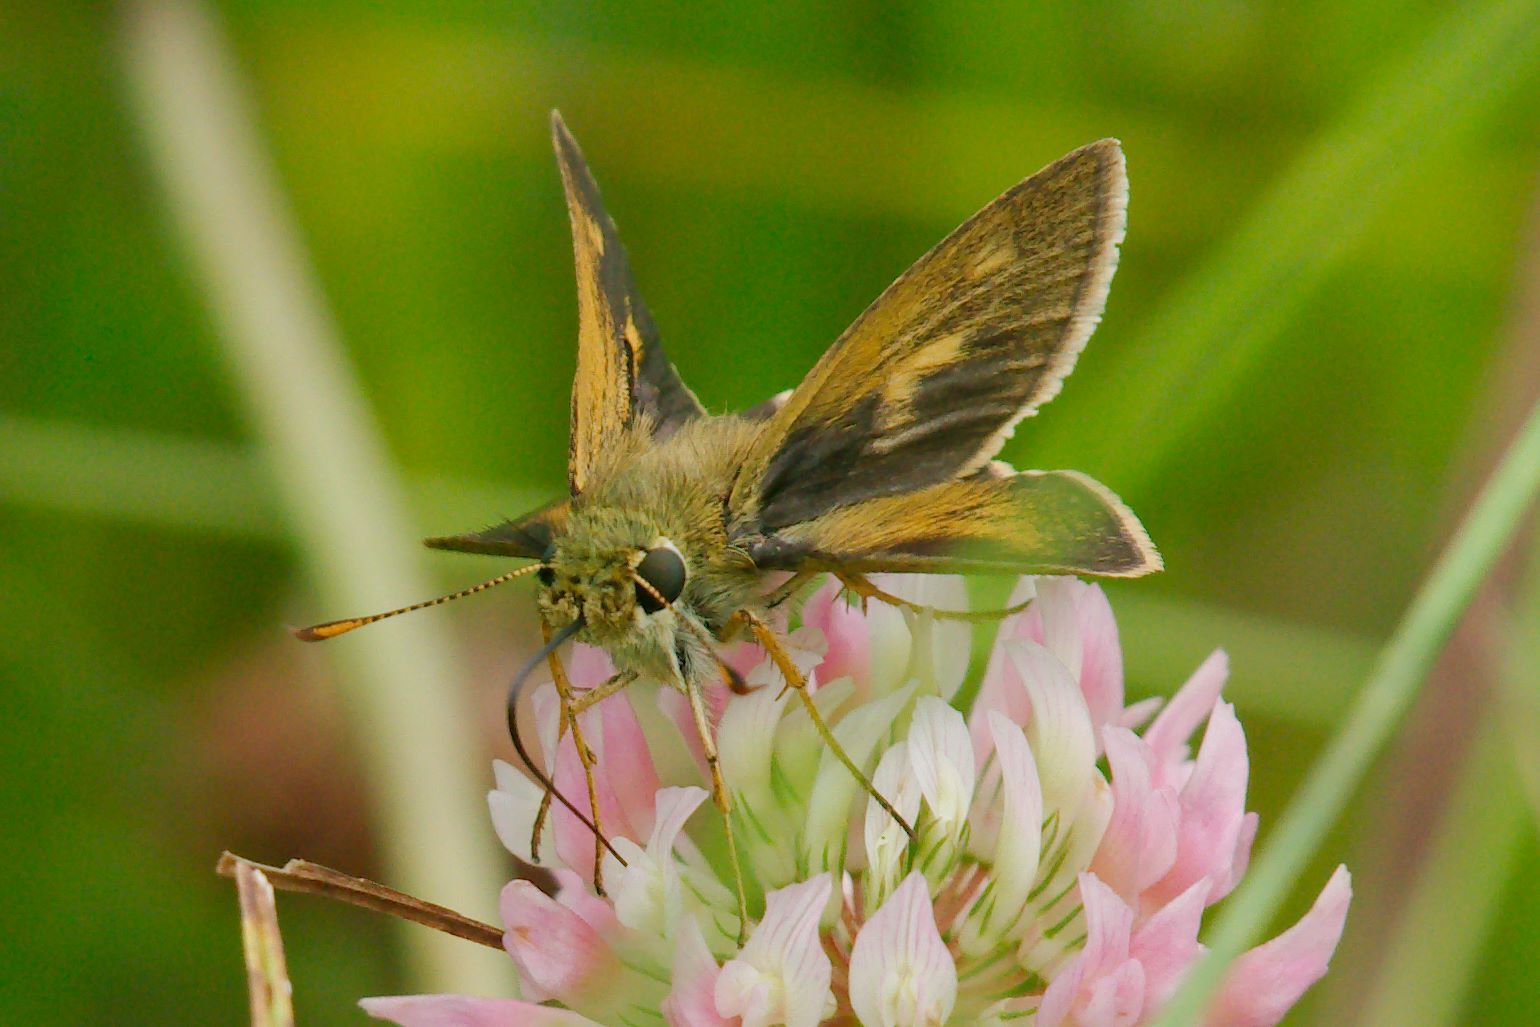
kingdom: Animalia
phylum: Arthropoda
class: Insecta
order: Lepidoptera
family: Hesperiidae
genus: Polites
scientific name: Polites egeremet
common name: Northern broken-dash
